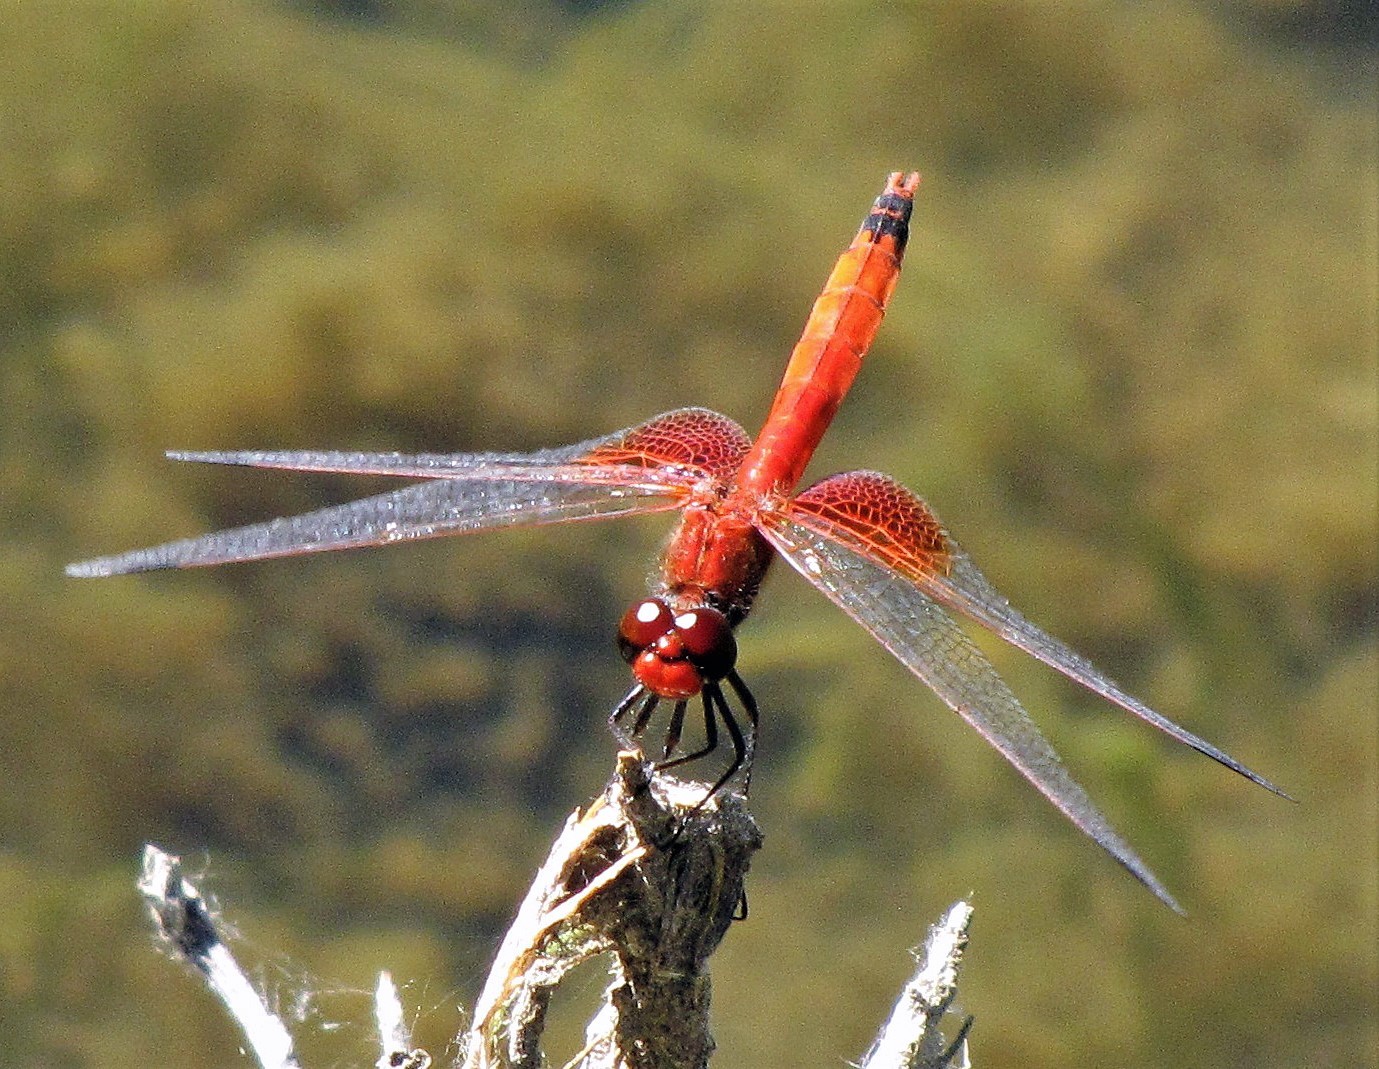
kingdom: Animalia
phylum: Arthropoda
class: Insecta
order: Odonata
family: Libellulidae
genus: Erythrodiplax
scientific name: Erythrodiplax corallina
